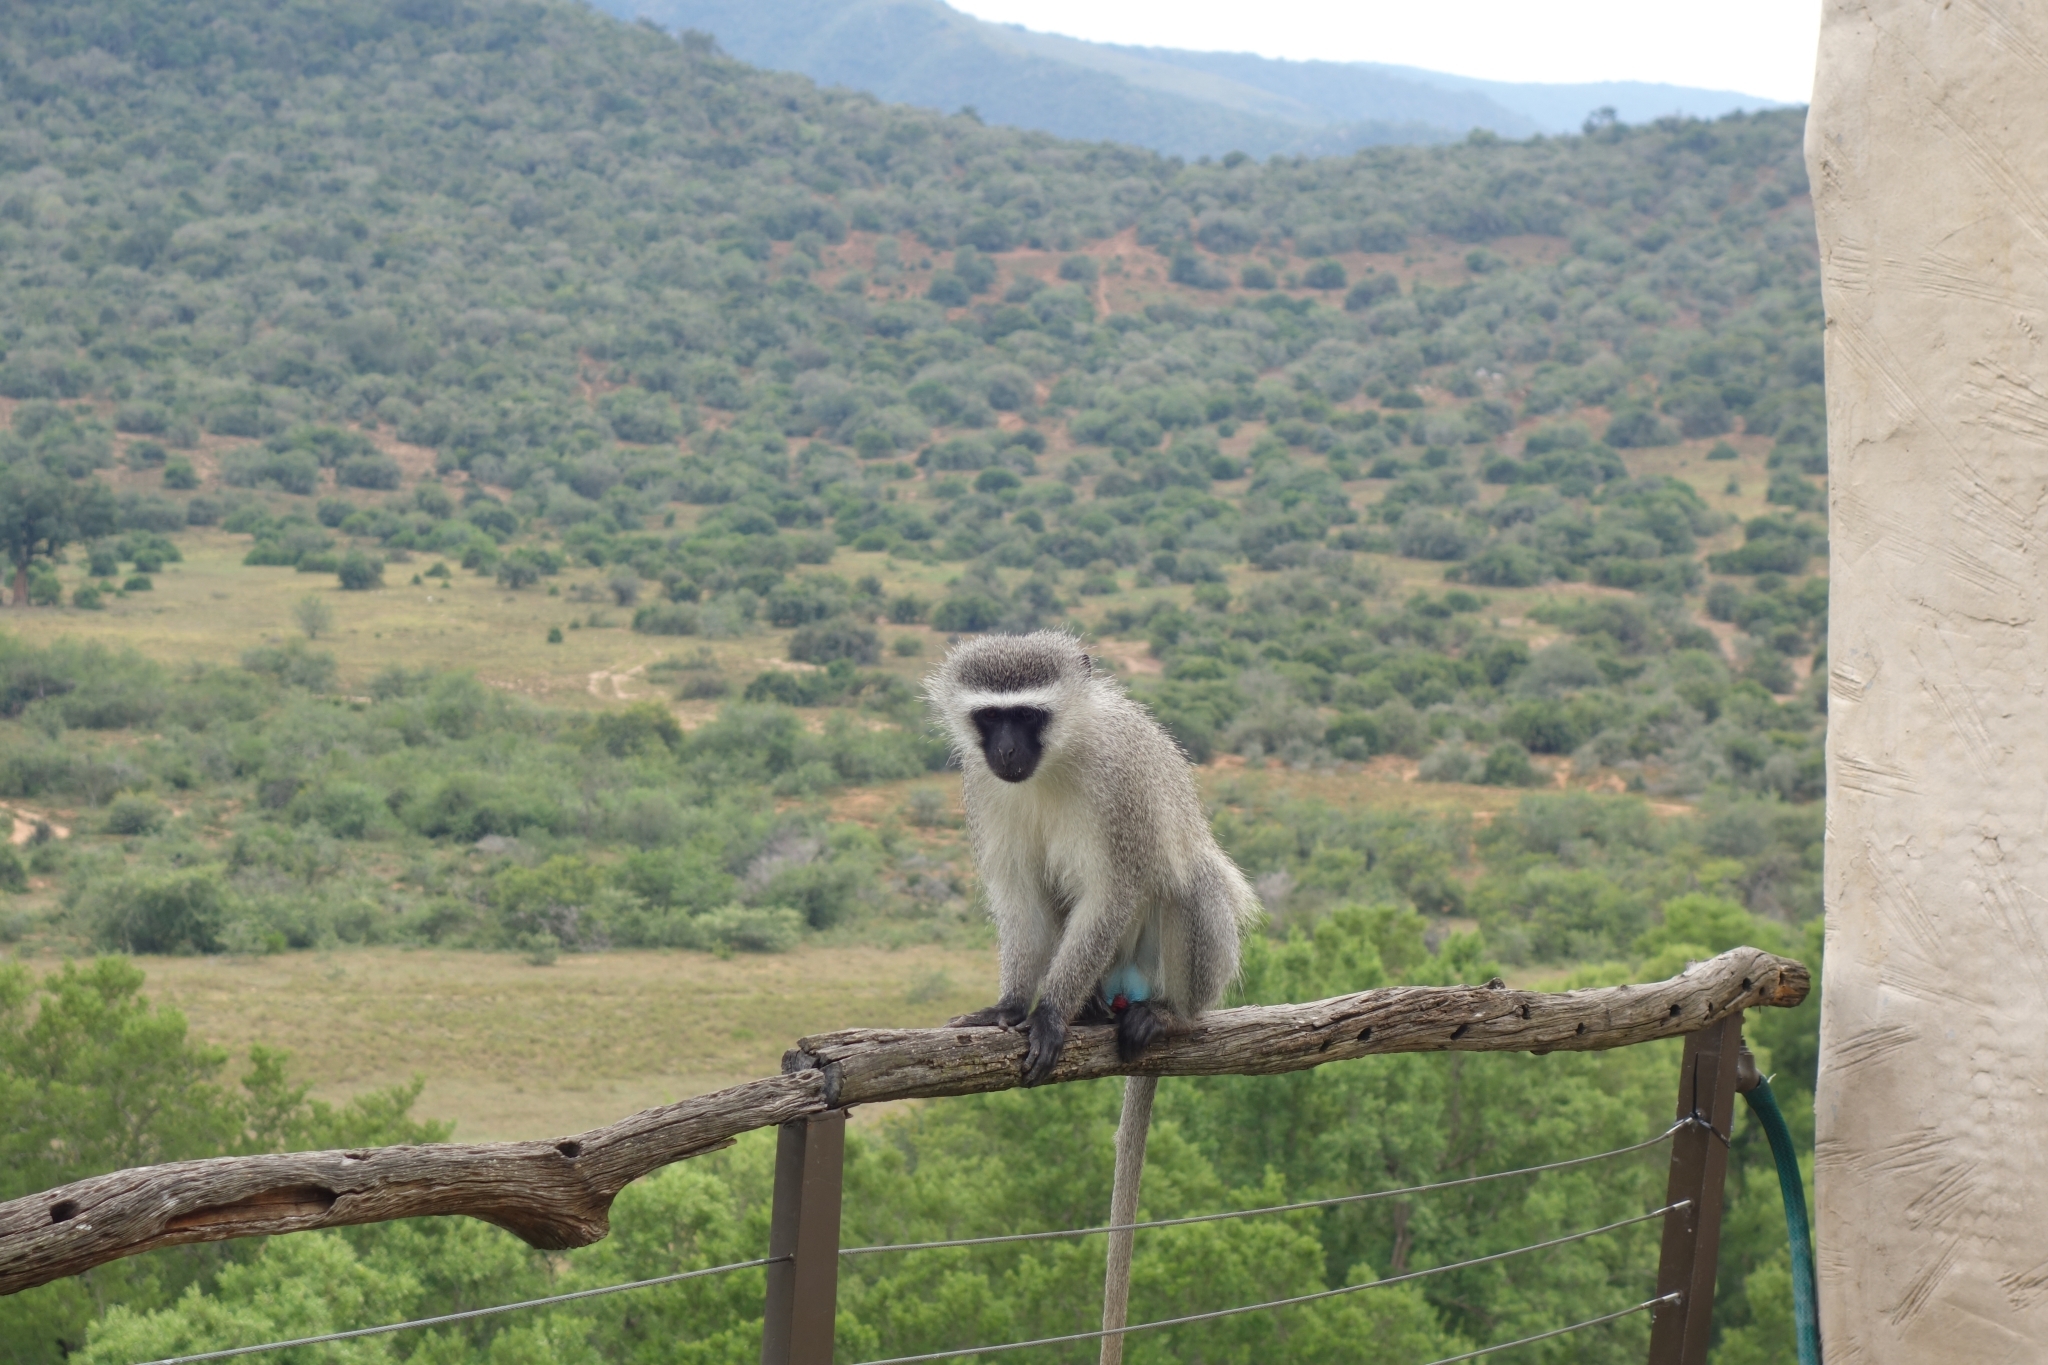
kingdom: Animalia
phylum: Chordata
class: Mammalia
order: Primates
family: Cercopithecidae
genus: Chlorocebus
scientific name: Chlorocebus pygerythrus
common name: Vervet monkey
